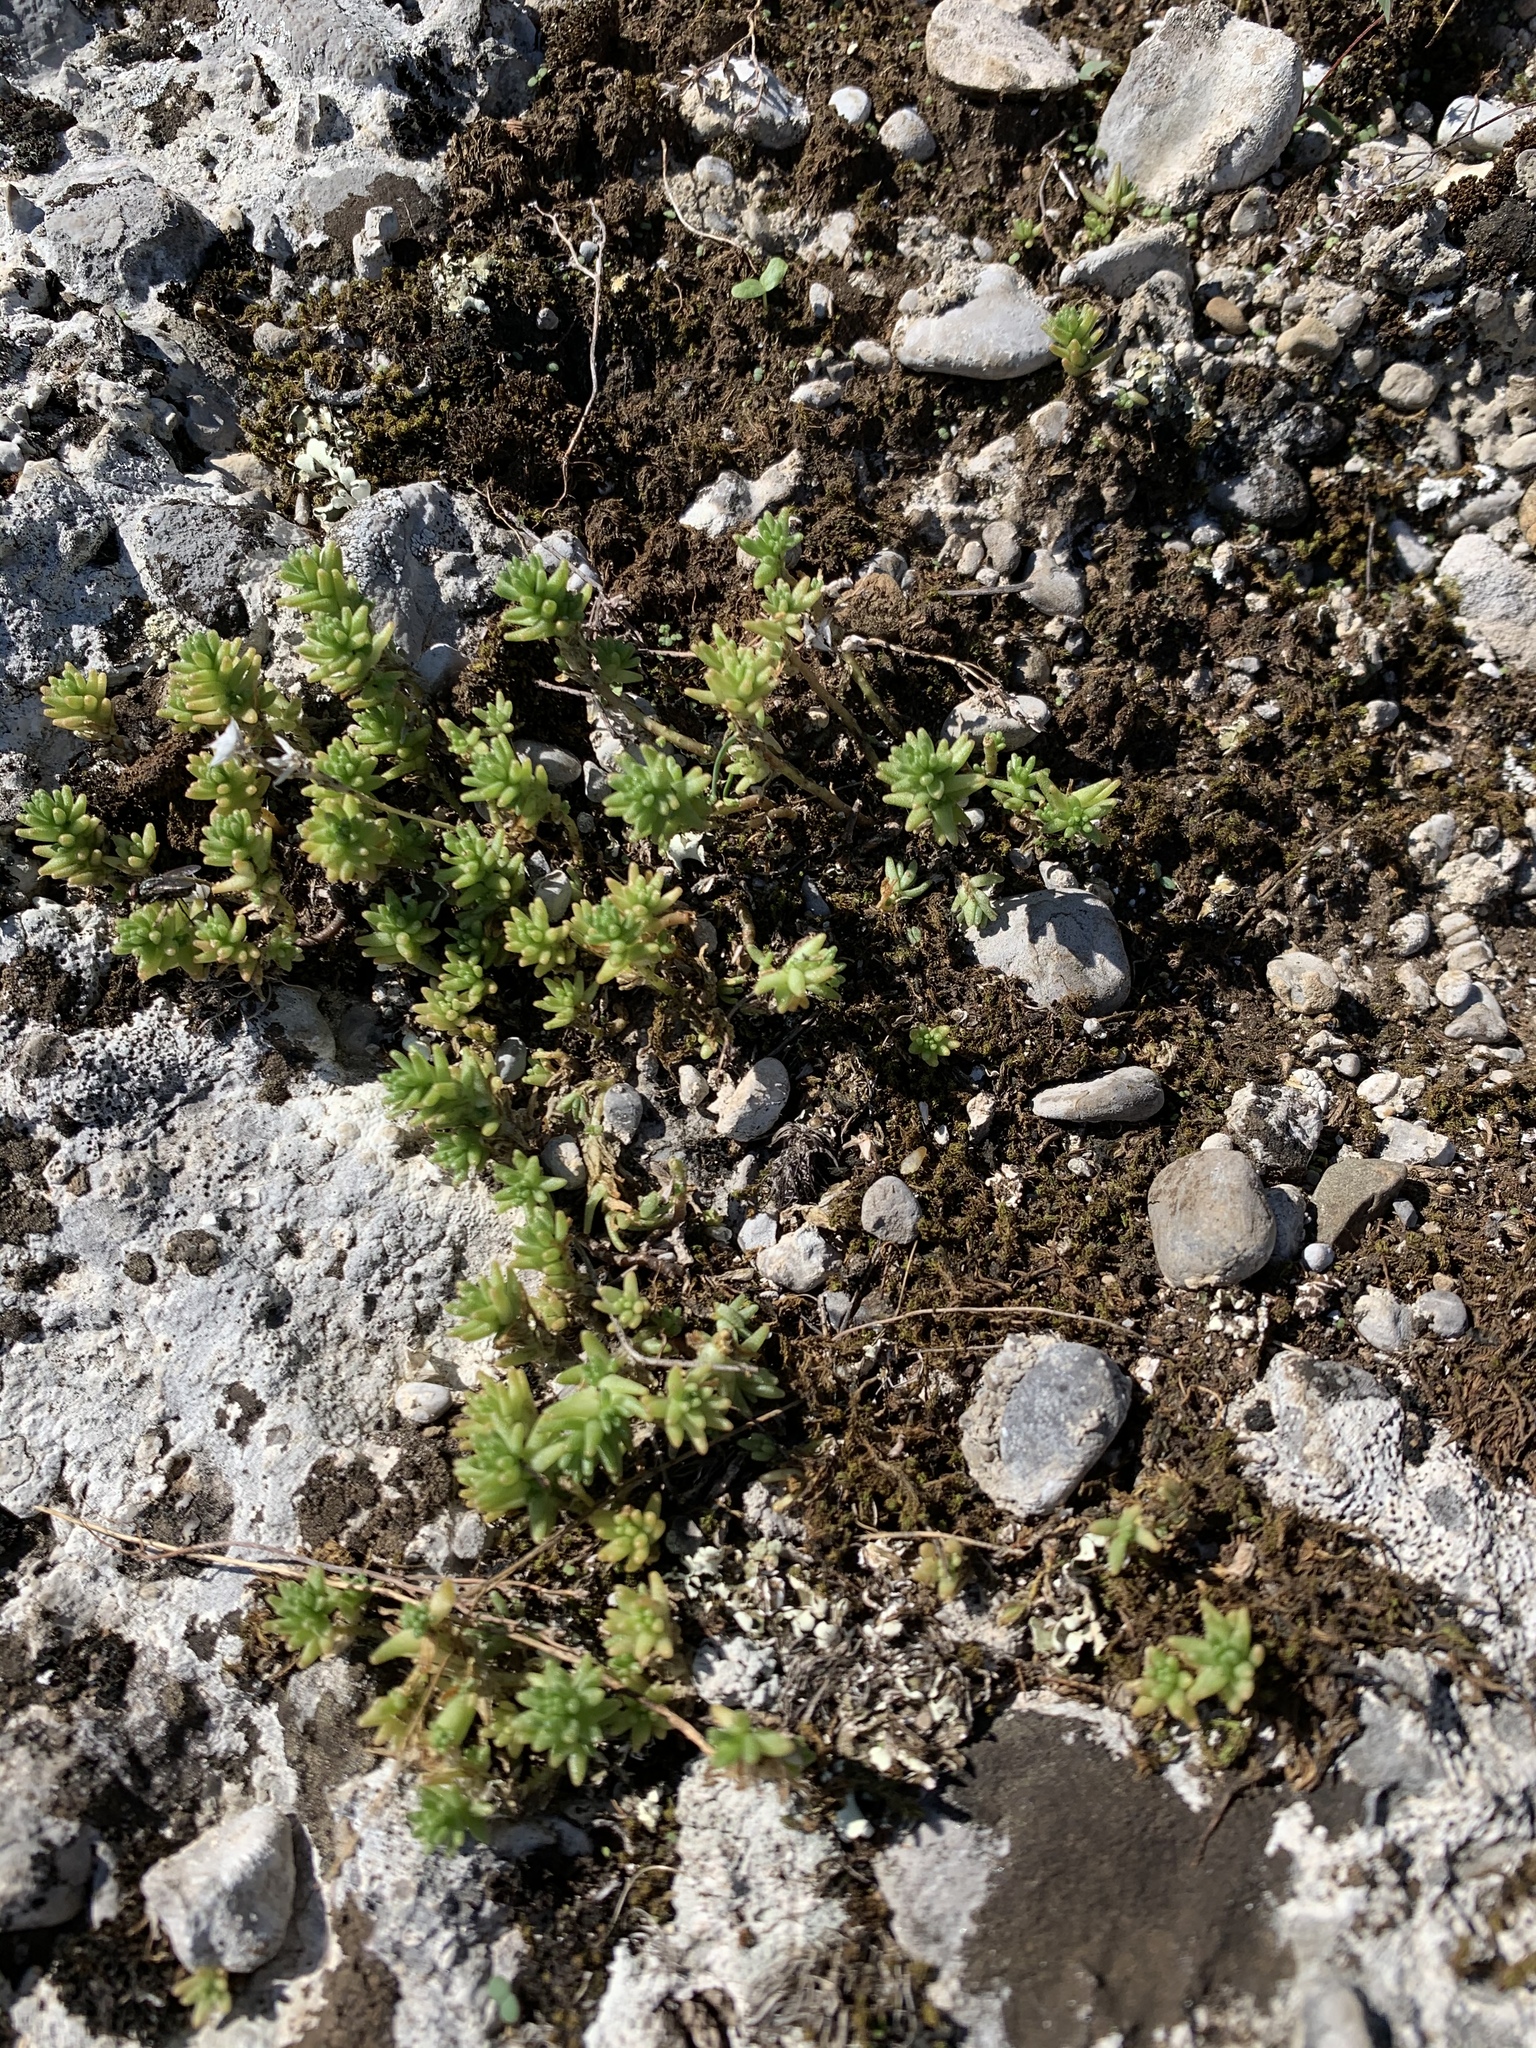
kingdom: Plantae
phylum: Tracheophyta
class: Magnoliopsida
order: Saxifragales
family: Crassulaceae
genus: Sedum
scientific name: Sedum sexangulare
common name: Tasteless stonecrop
